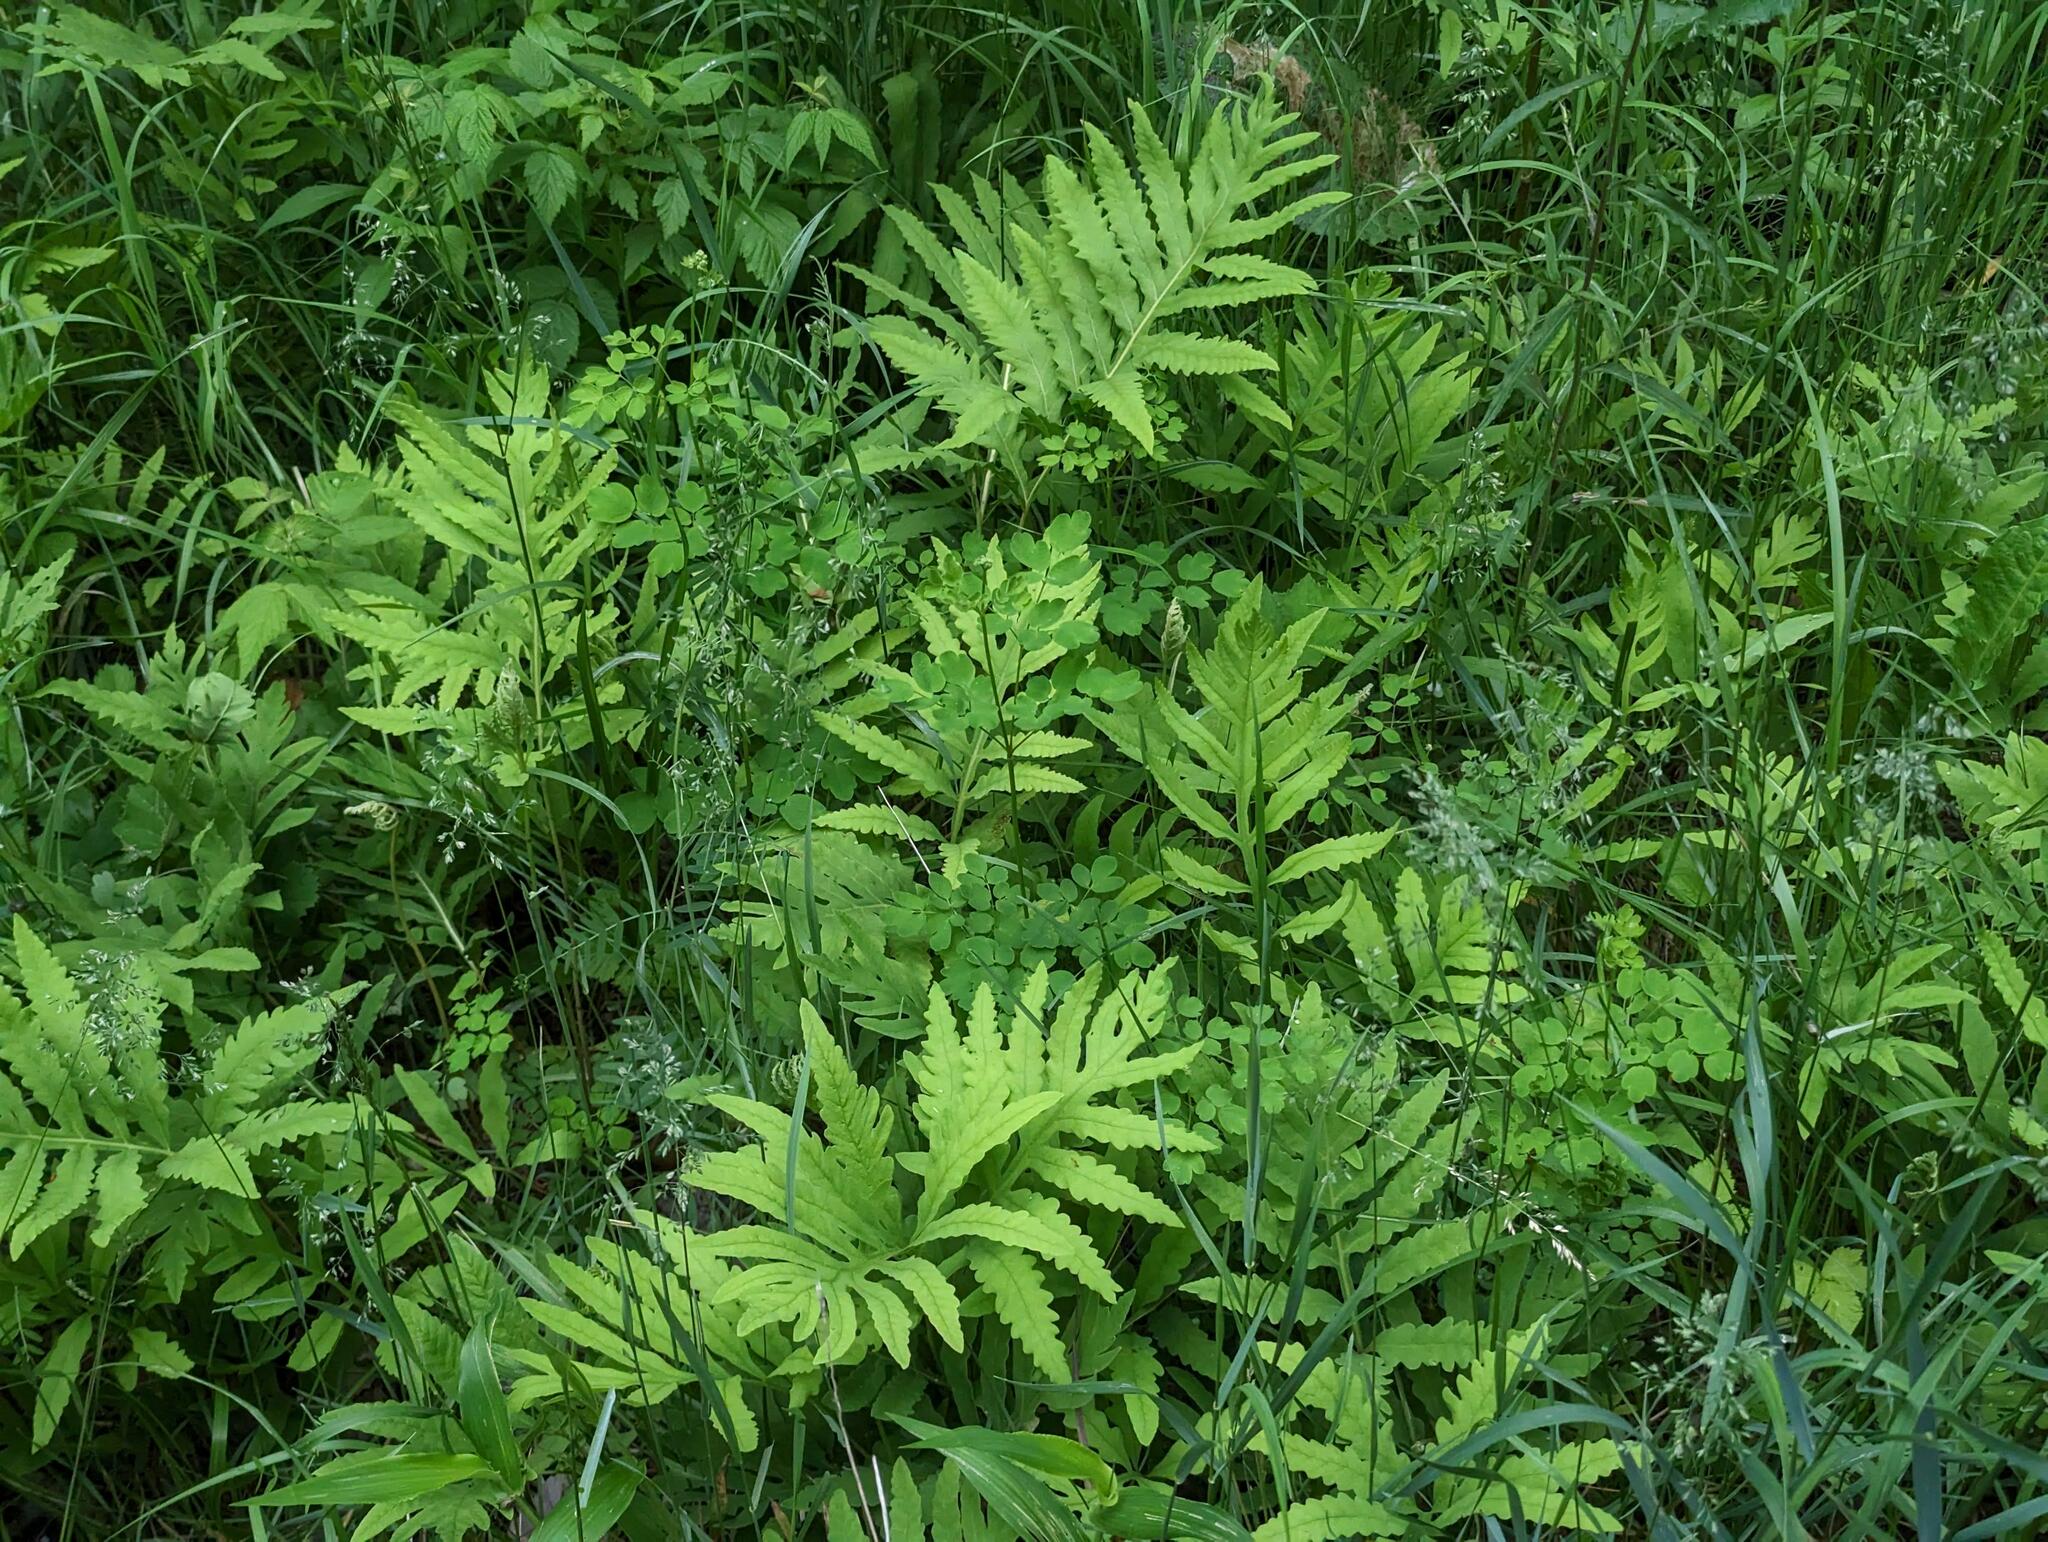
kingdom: Plantae
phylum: Tracheophyta
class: Polypodiopsida
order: Polypodiales
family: Onocleaceae
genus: Onoclea
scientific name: Onoclea sensibilis
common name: Sensitive fern
